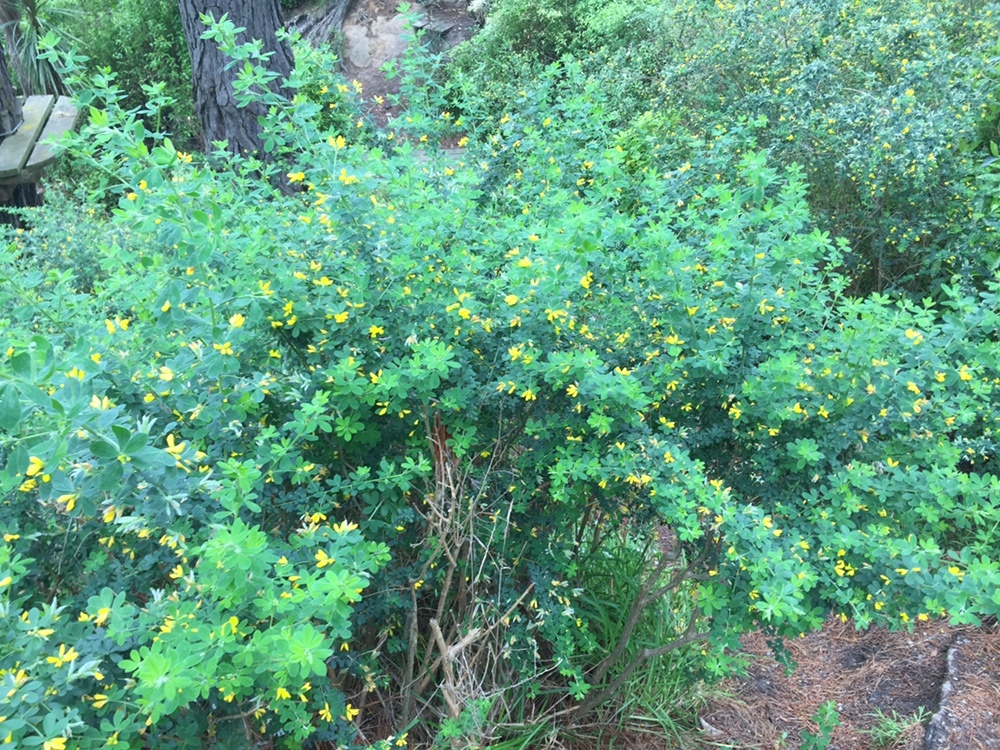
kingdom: Plantae
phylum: Tracheophyta
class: Magnoliopsida
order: Fabales
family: Fabaceae
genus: Genista
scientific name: Genista monspessulana
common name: Montpellier broom
